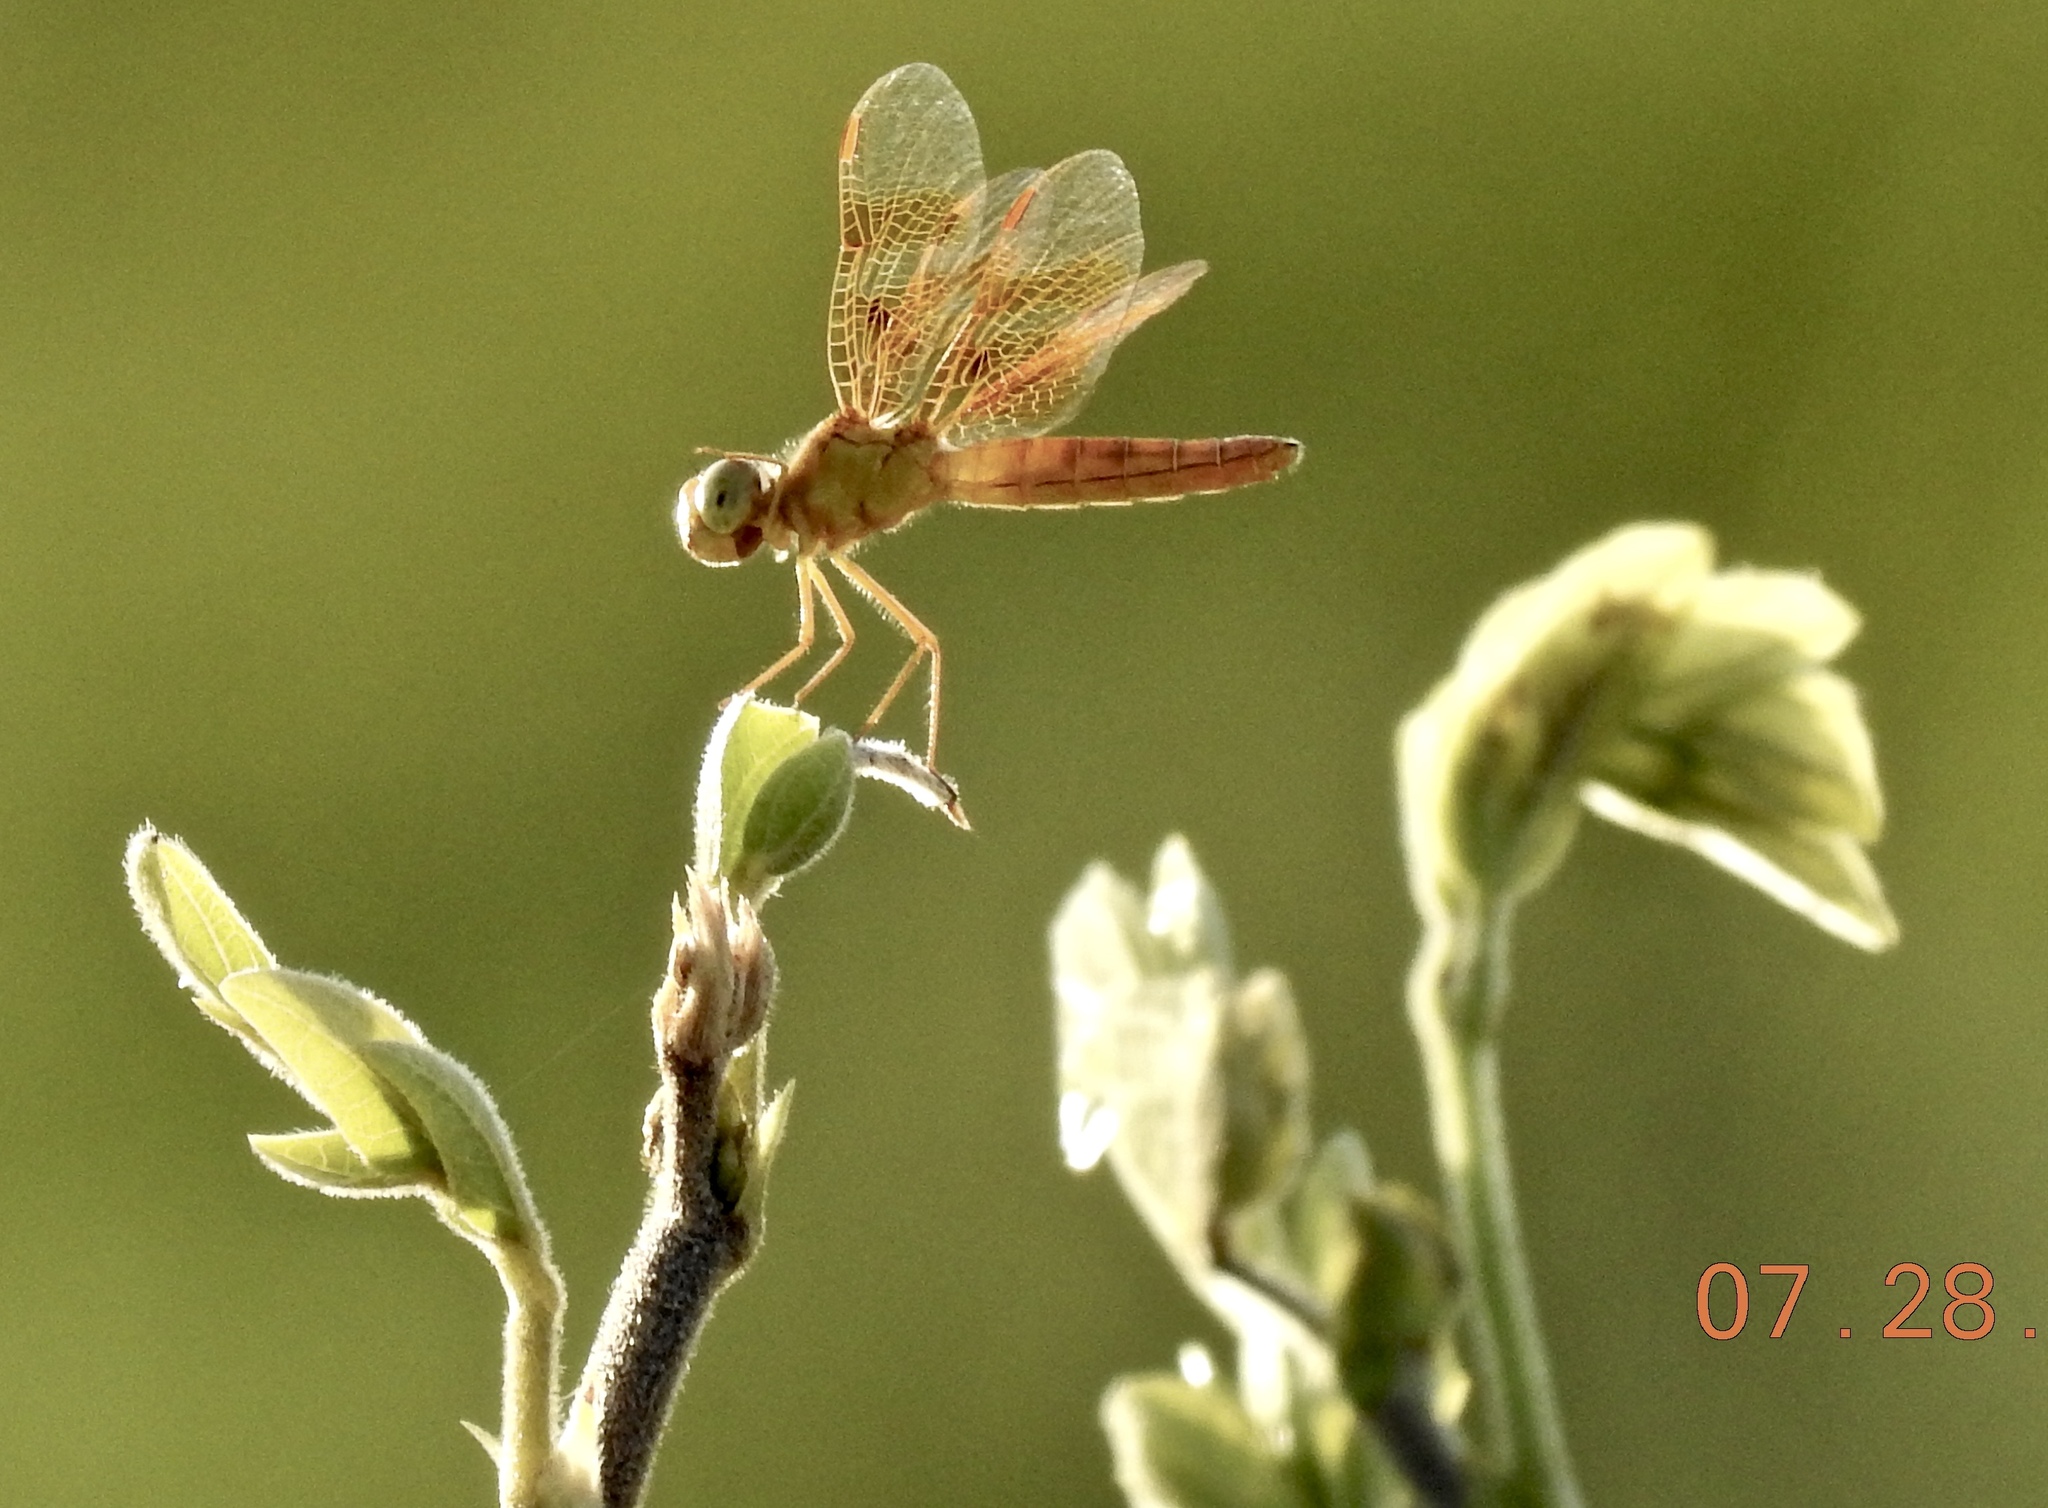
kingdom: Animalia
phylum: Arthropoda
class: Insecta
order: Odonata
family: Libellulidae
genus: Perithemis
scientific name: Perithemis intensa
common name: Mexican amberwing
